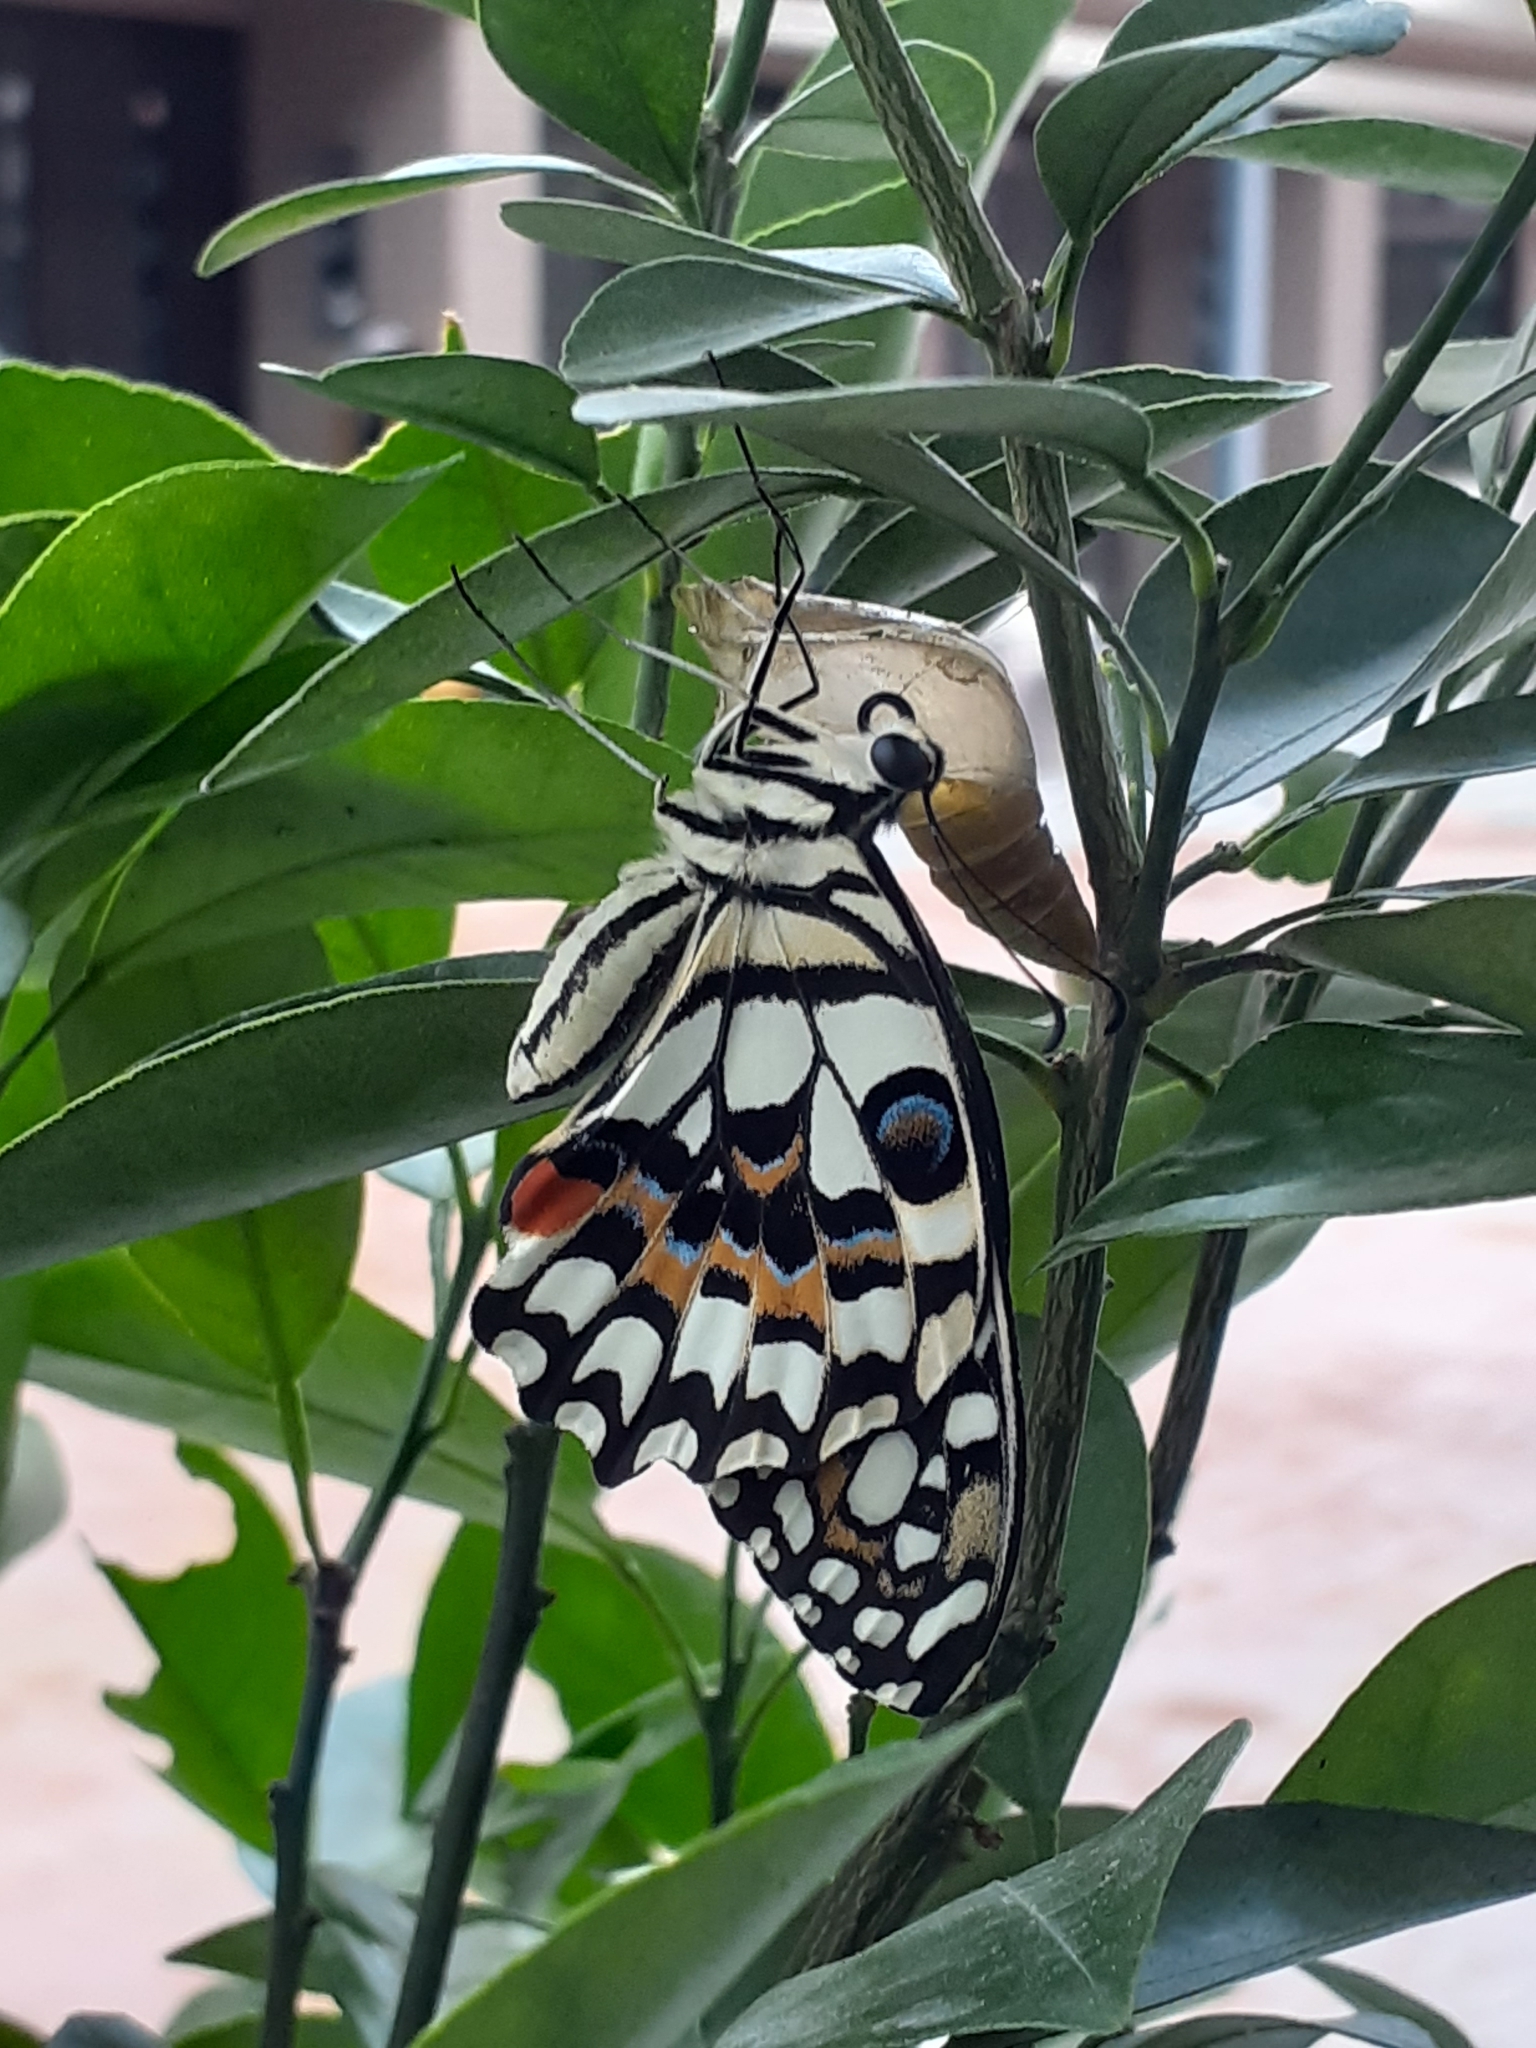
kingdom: Animalia
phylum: Arthropoda
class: Insecta
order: Lepidoptera
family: Papilionidae
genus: Papilio
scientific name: Papilio demoleus
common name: Lime butterfly
